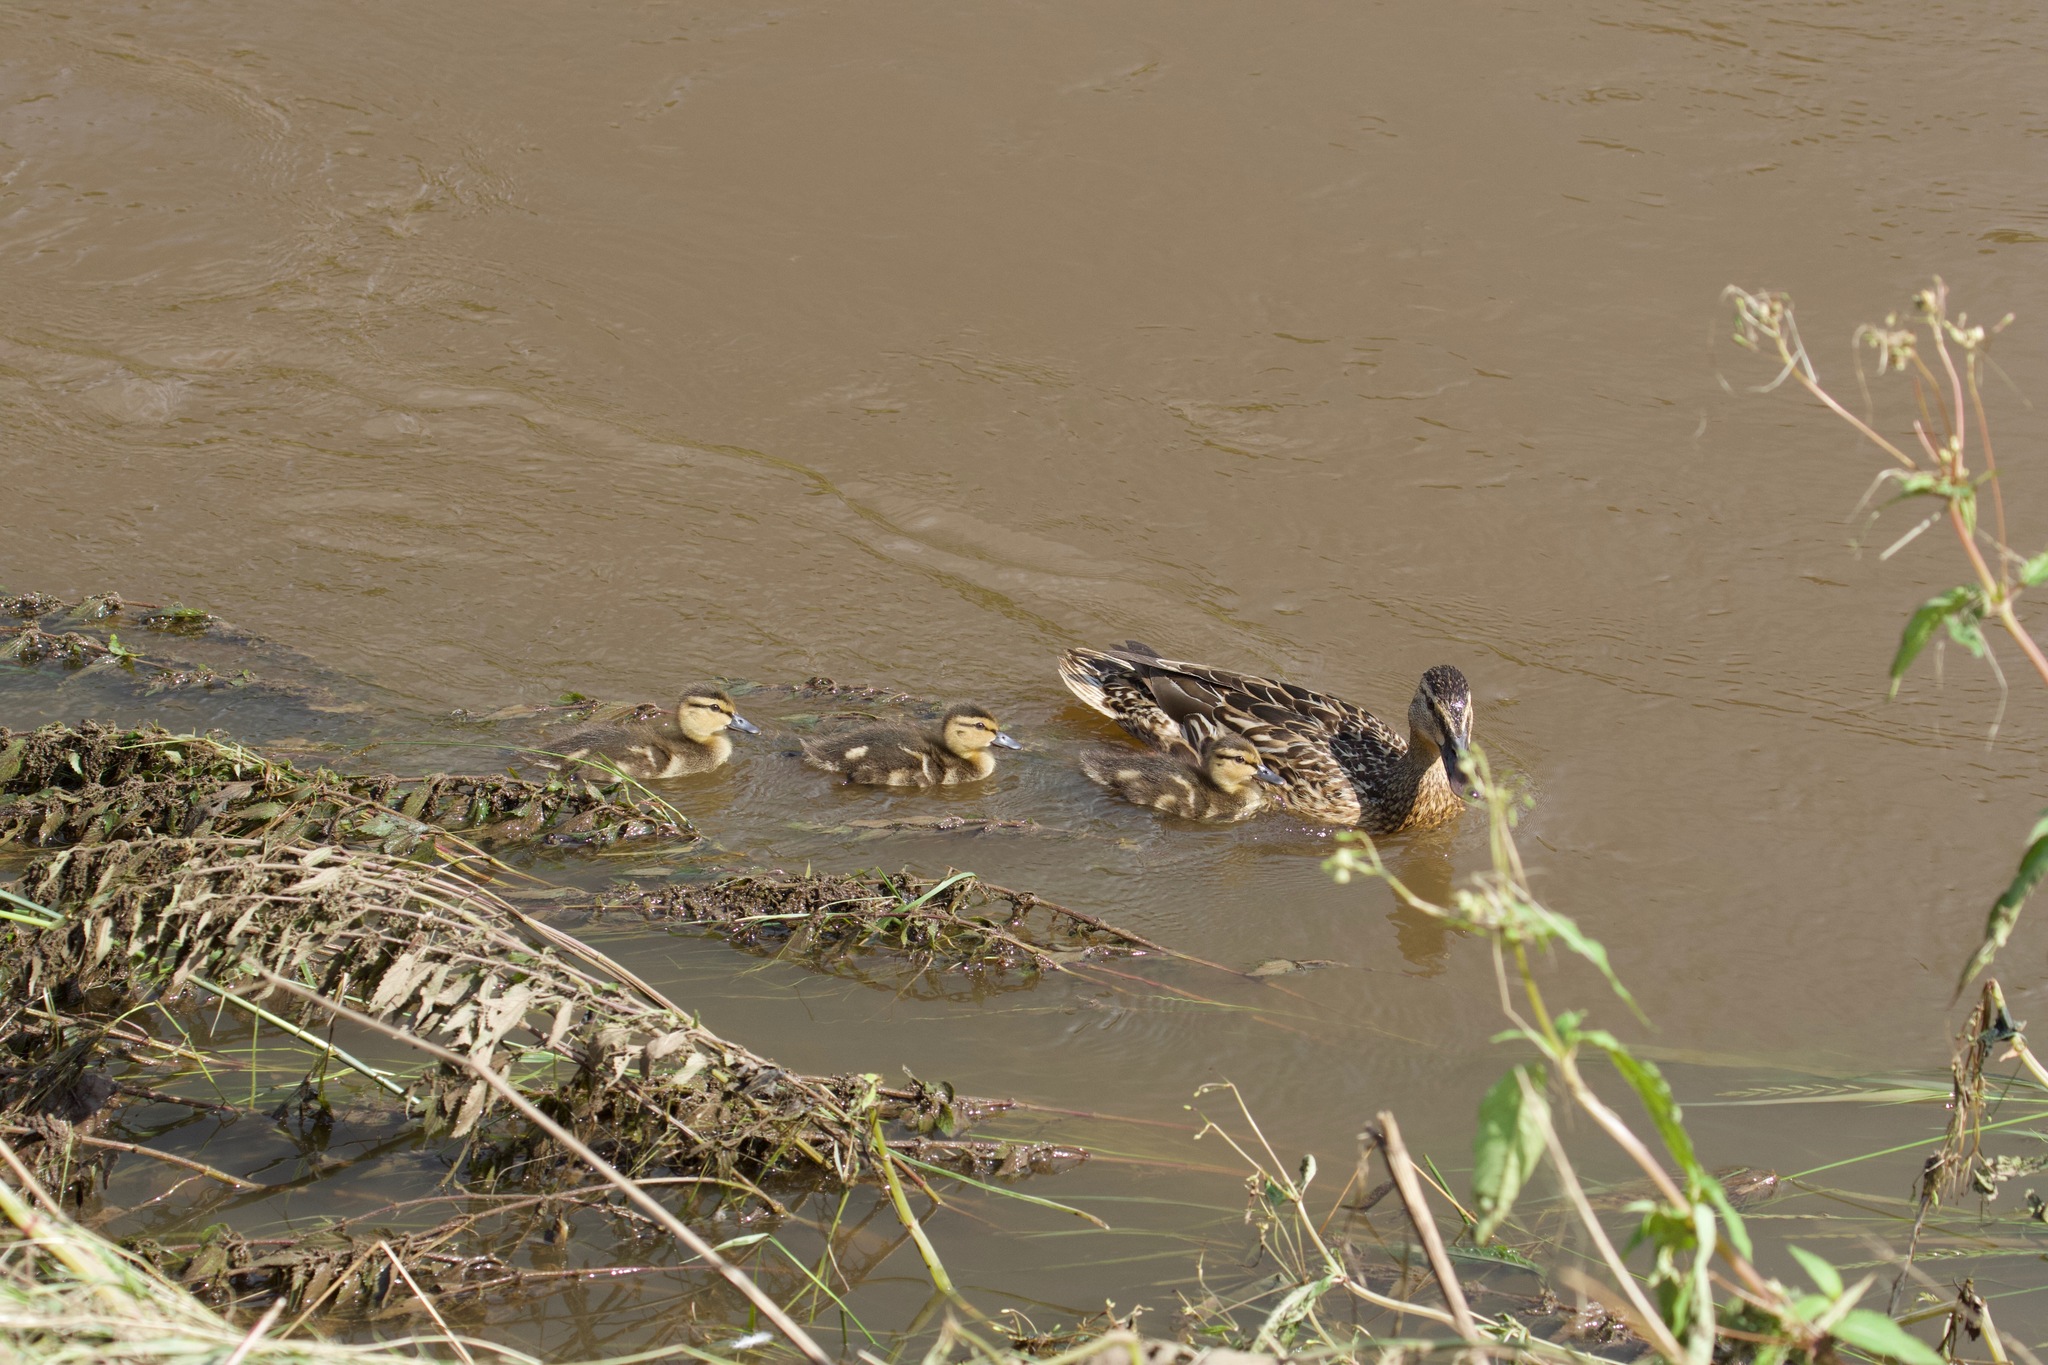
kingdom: Animalia
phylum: Chordata
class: Aves
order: Anseriformes
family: Anatidae
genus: Anas
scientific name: Anas platyrhynchos
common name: Mallard
